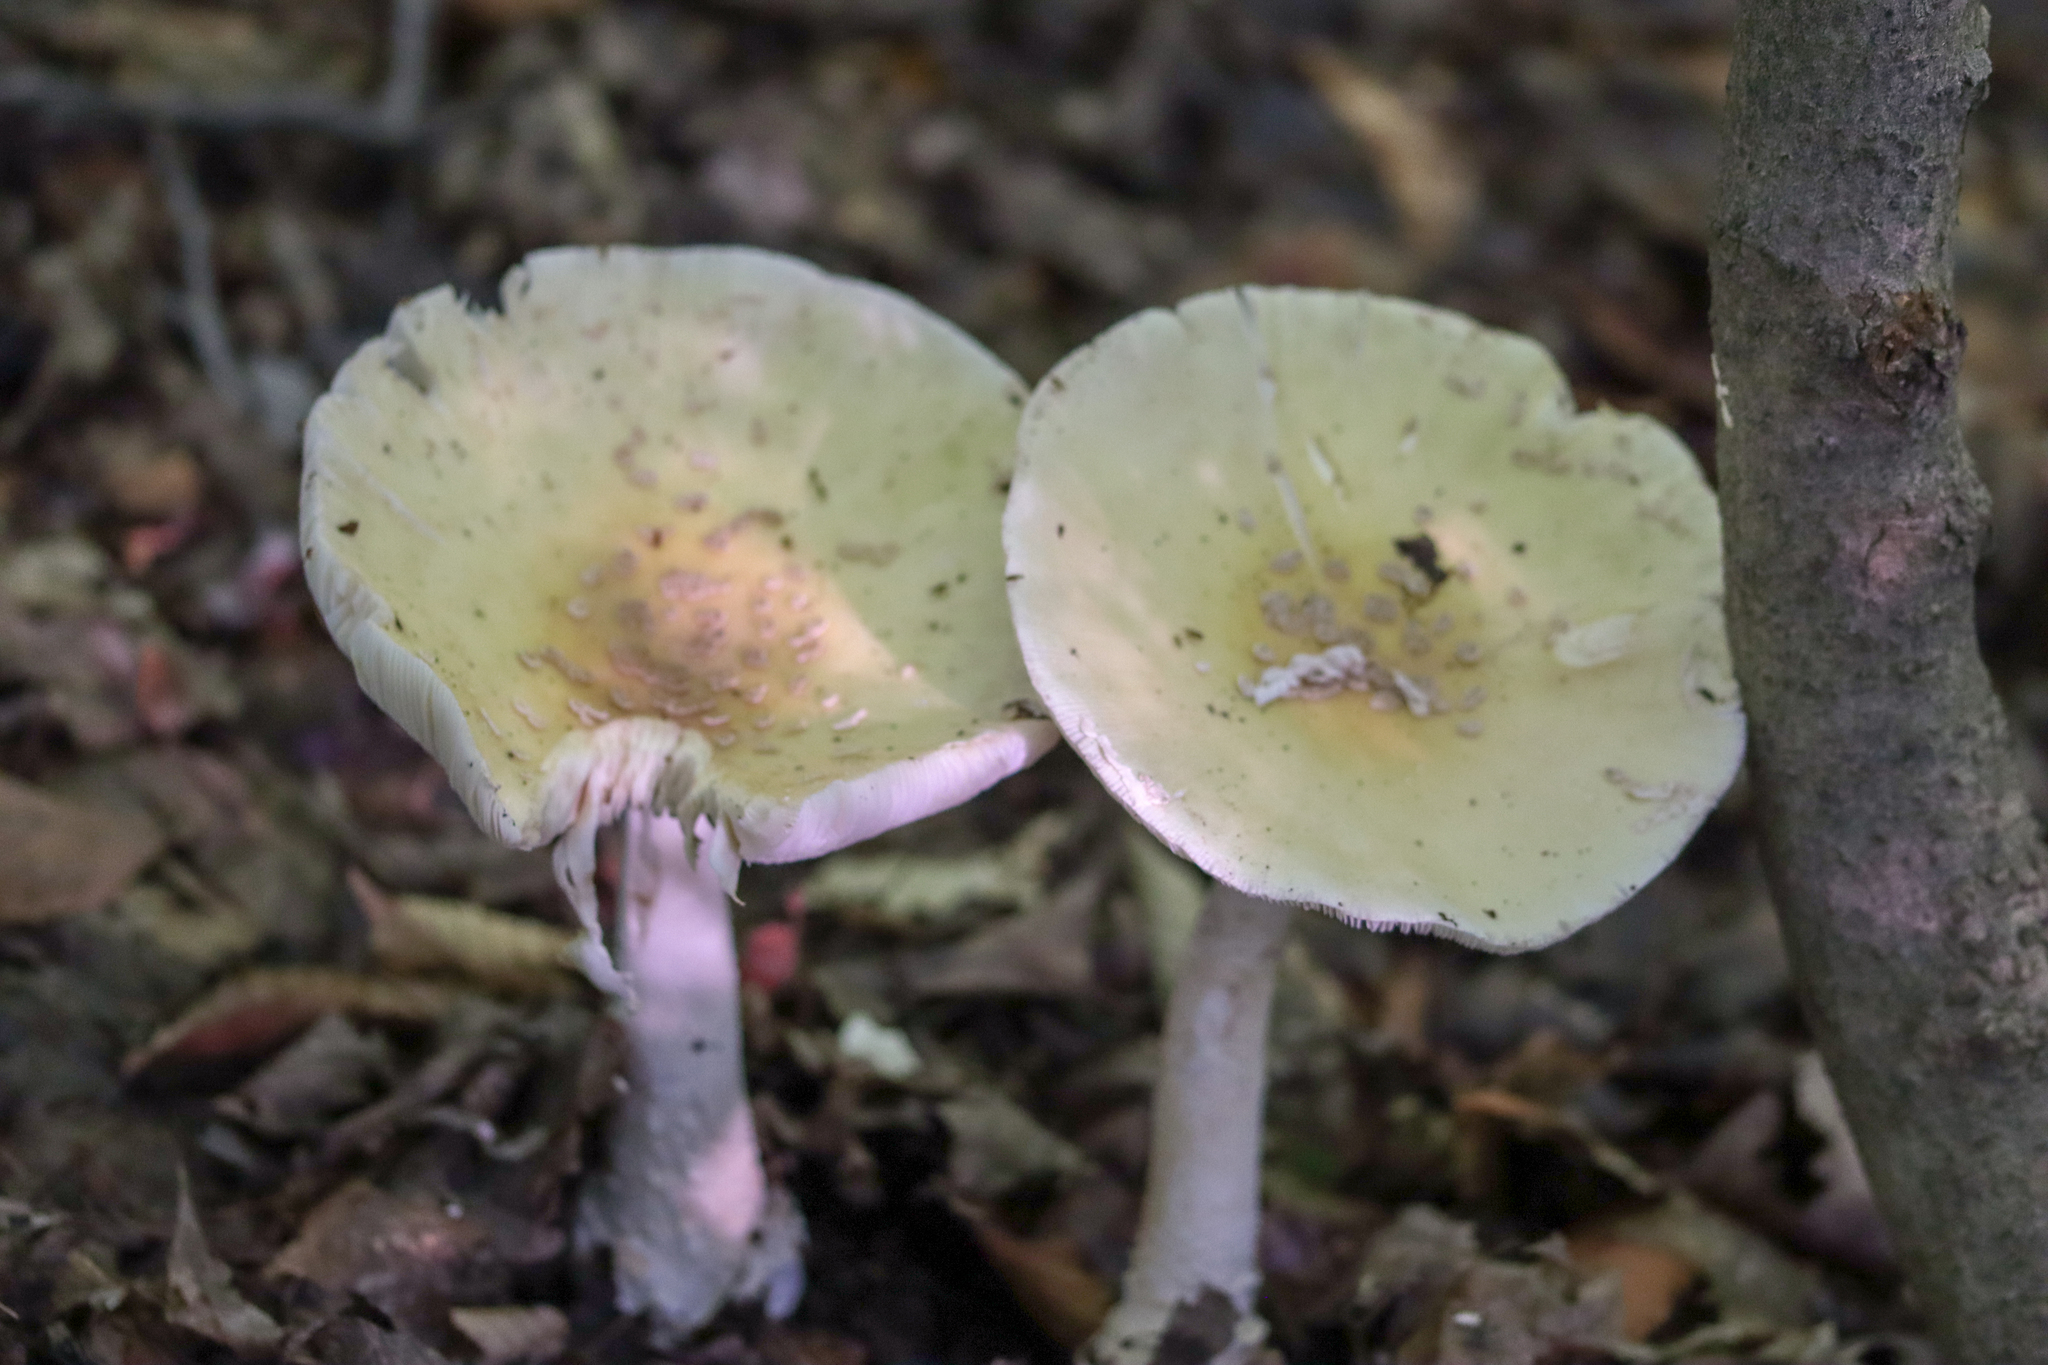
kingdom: Fungi
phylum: Basidiomycota
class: Agaricomycetes
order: Agaricales
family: Amanitaceae
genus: Amanita
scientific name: Amanita velatipes
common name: Great funnel-veil amanita
